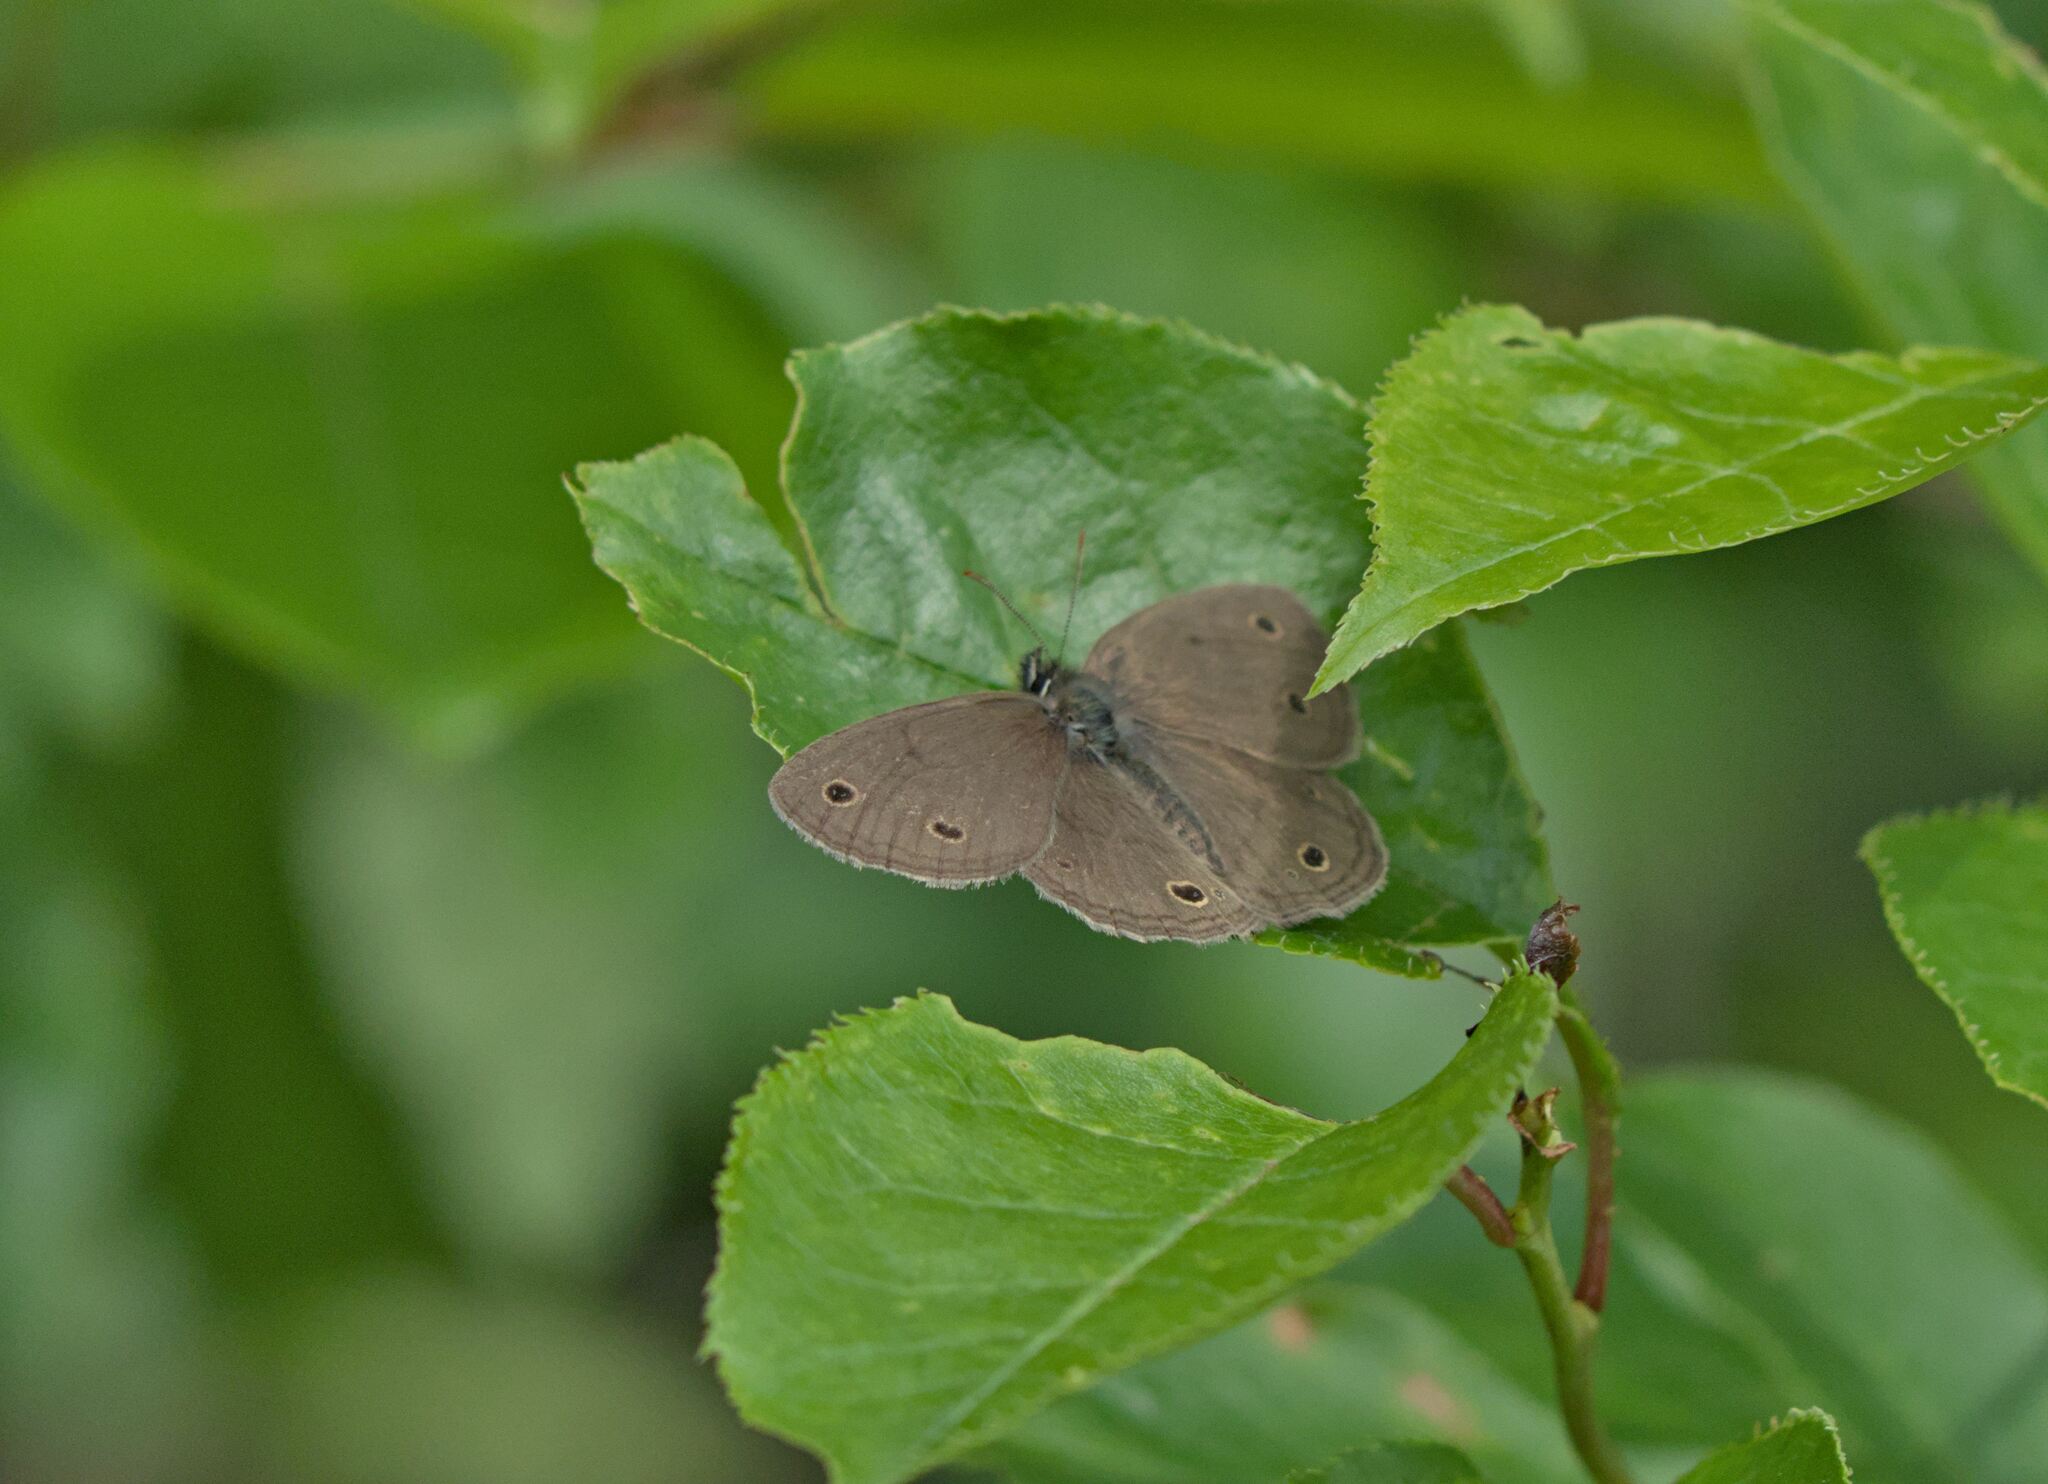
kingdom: Animalia
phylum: Arthropoda
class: Insecta
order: Lepidoptera
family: Nymphalidae
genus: Euptychia
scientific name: Euptychia cymela
